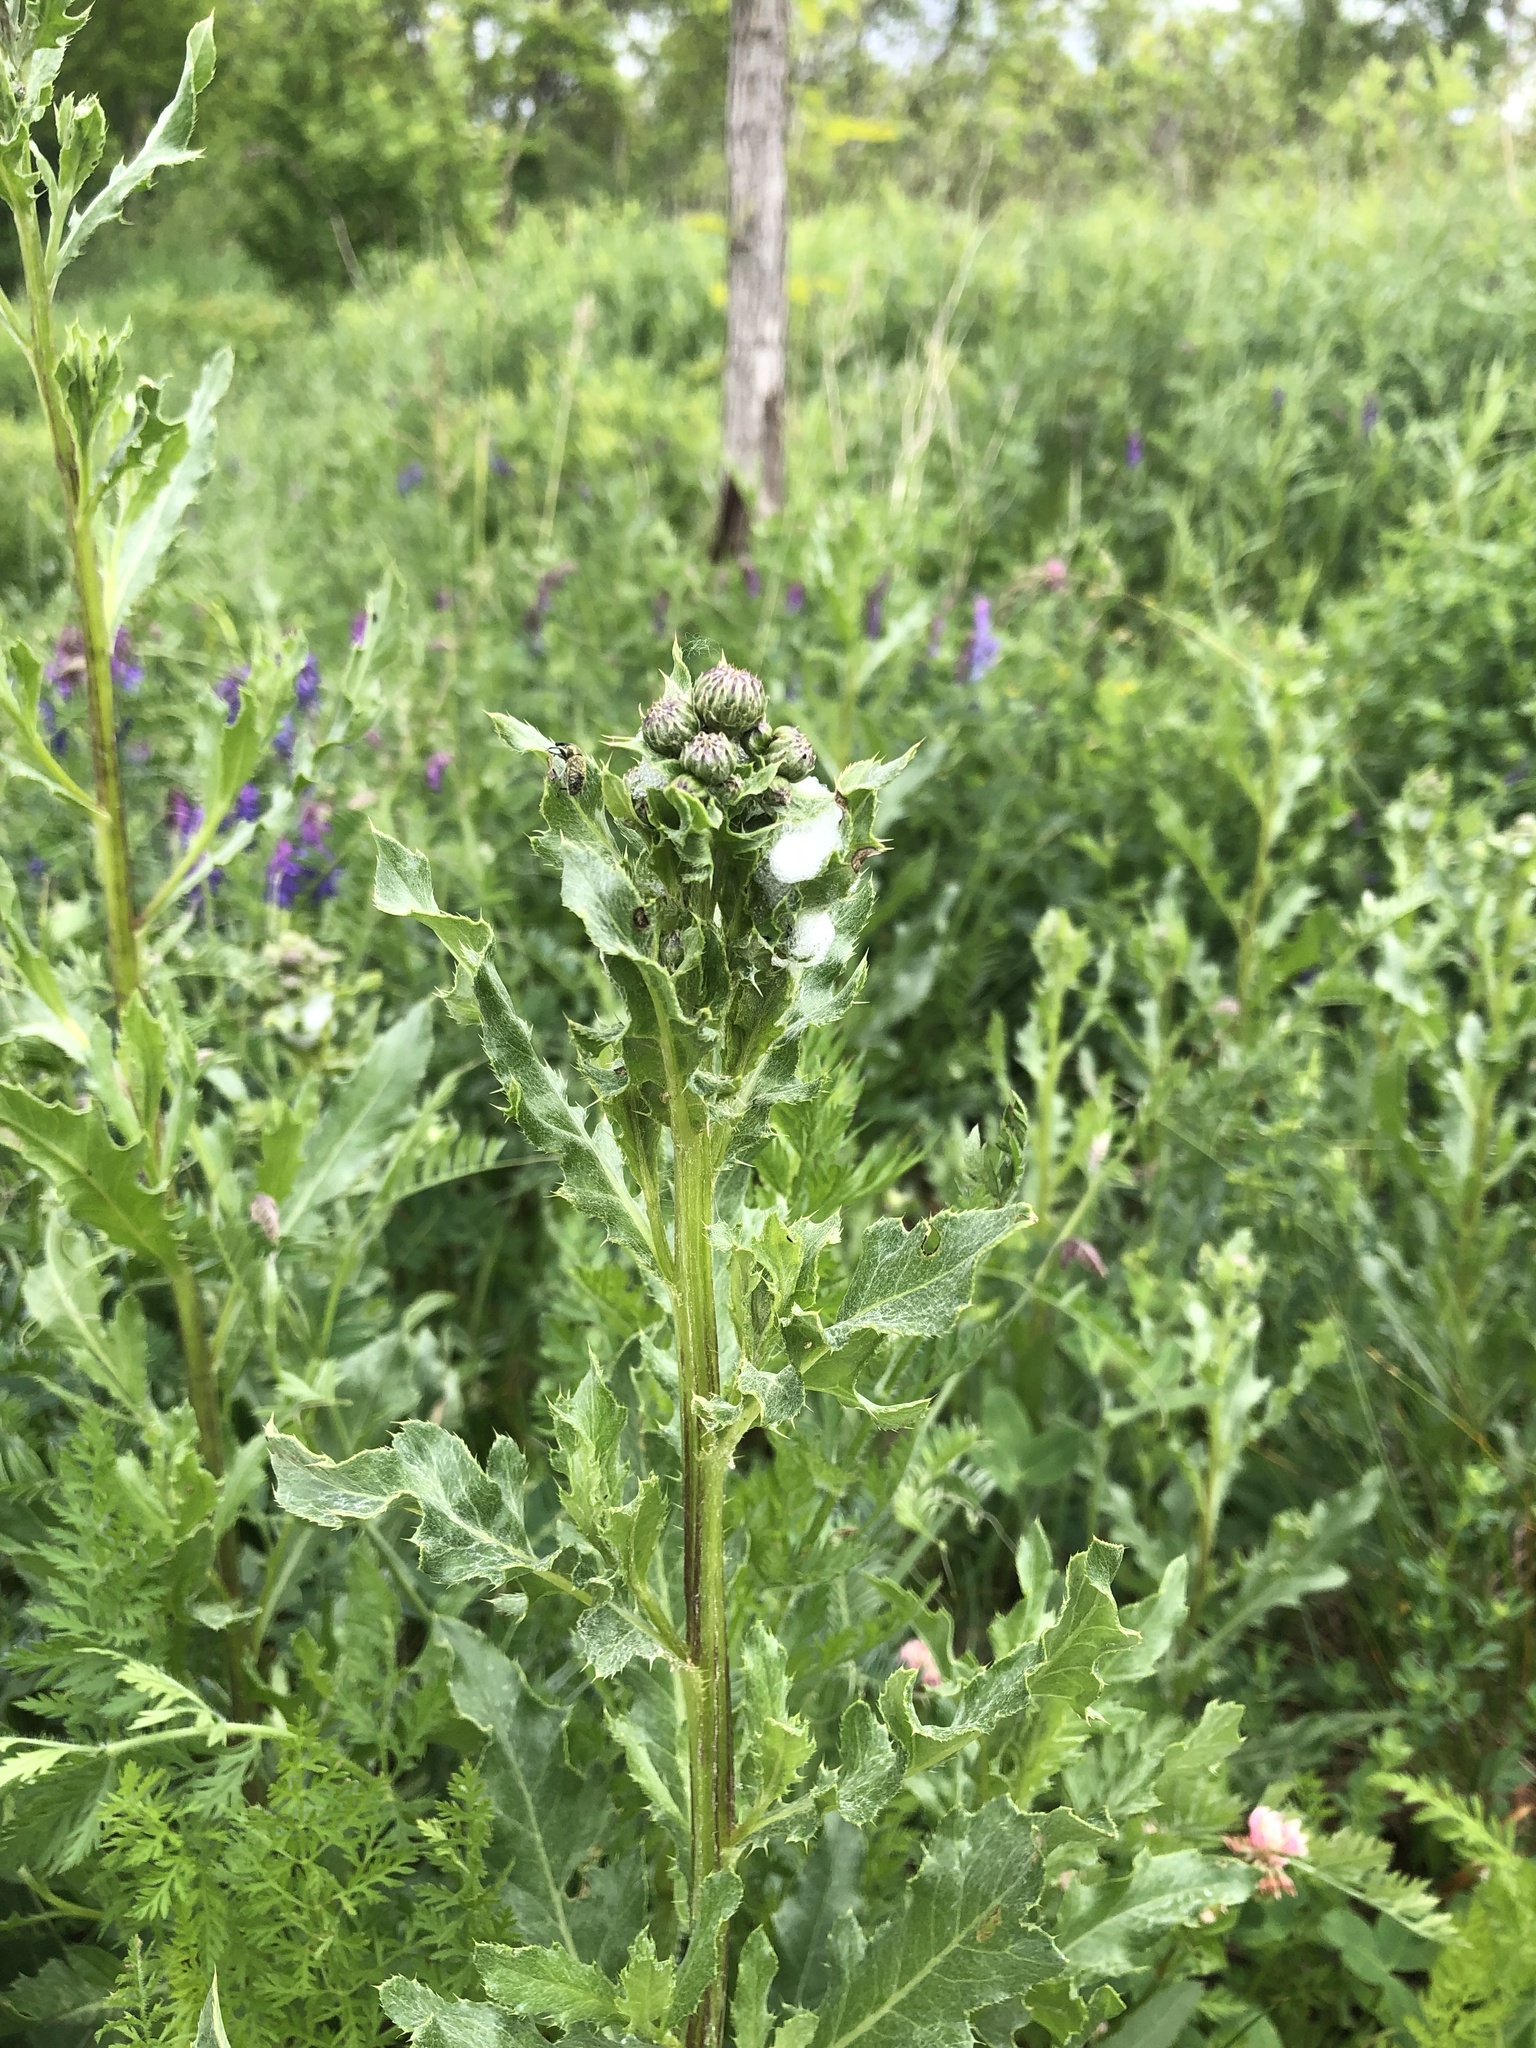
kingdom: Plantae
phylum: Tracheophyta
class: Magnoliopsida
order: Asterales
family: Asteraceae
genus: Cirsium
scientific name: Cirsium arvense
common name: Creeping thistle
